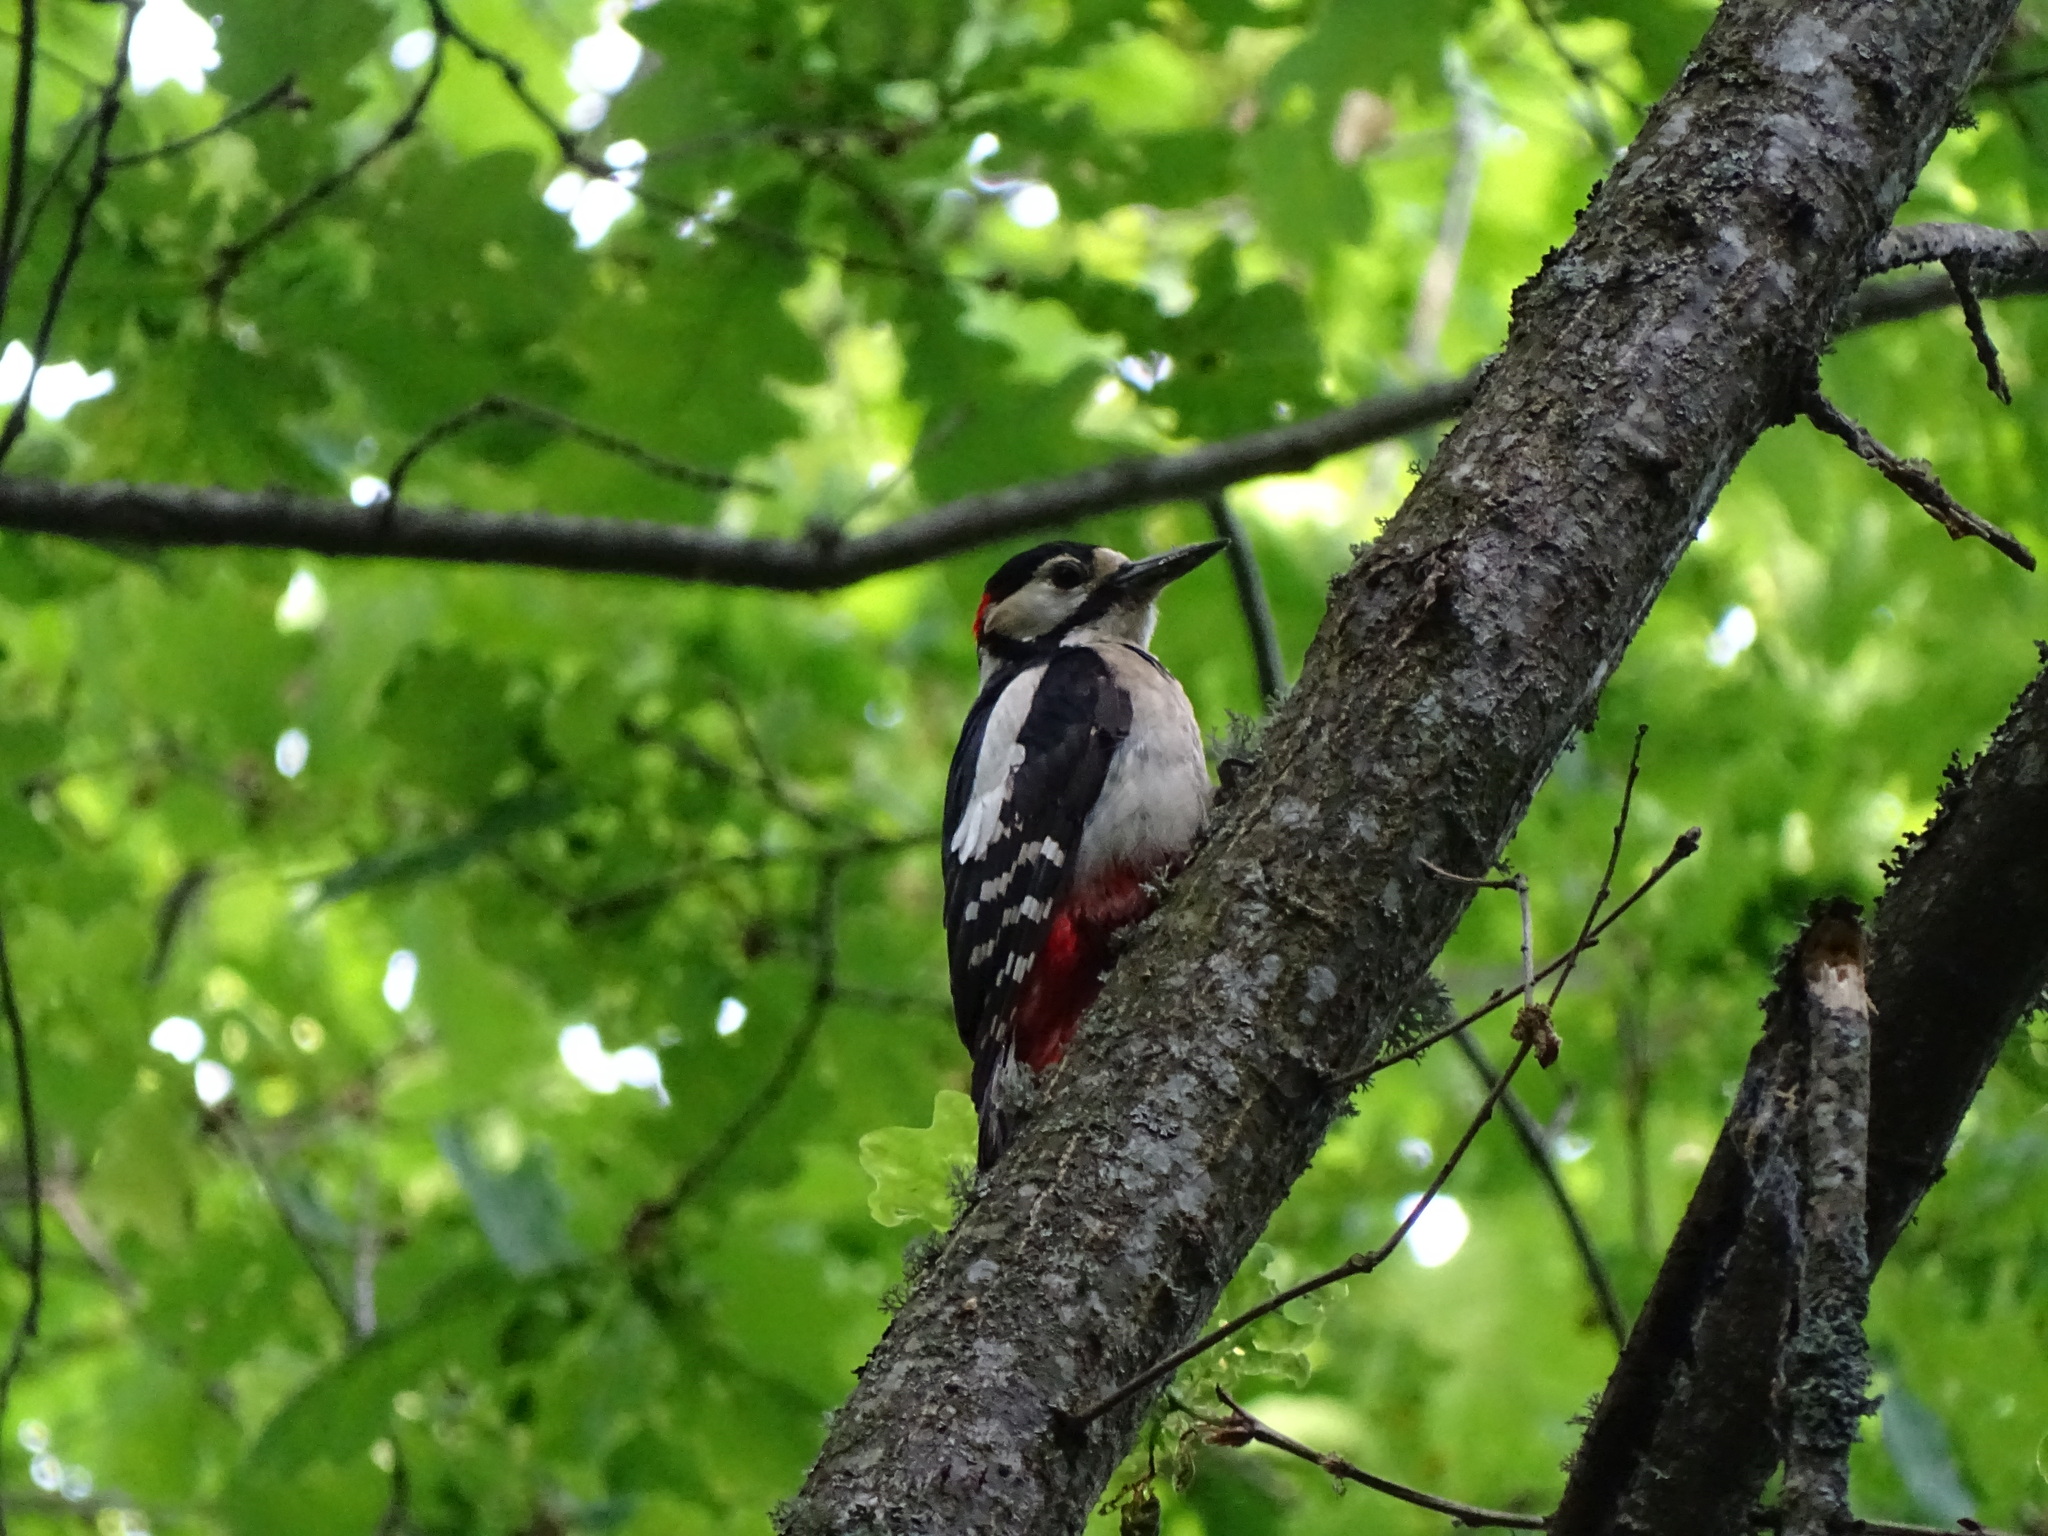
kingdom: Animalia
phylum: Chordata
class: Aves
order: Piciformes
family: Picidae
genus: Dendrocopos
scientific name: Dendrocopos major
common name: Great spotted woodpecker
